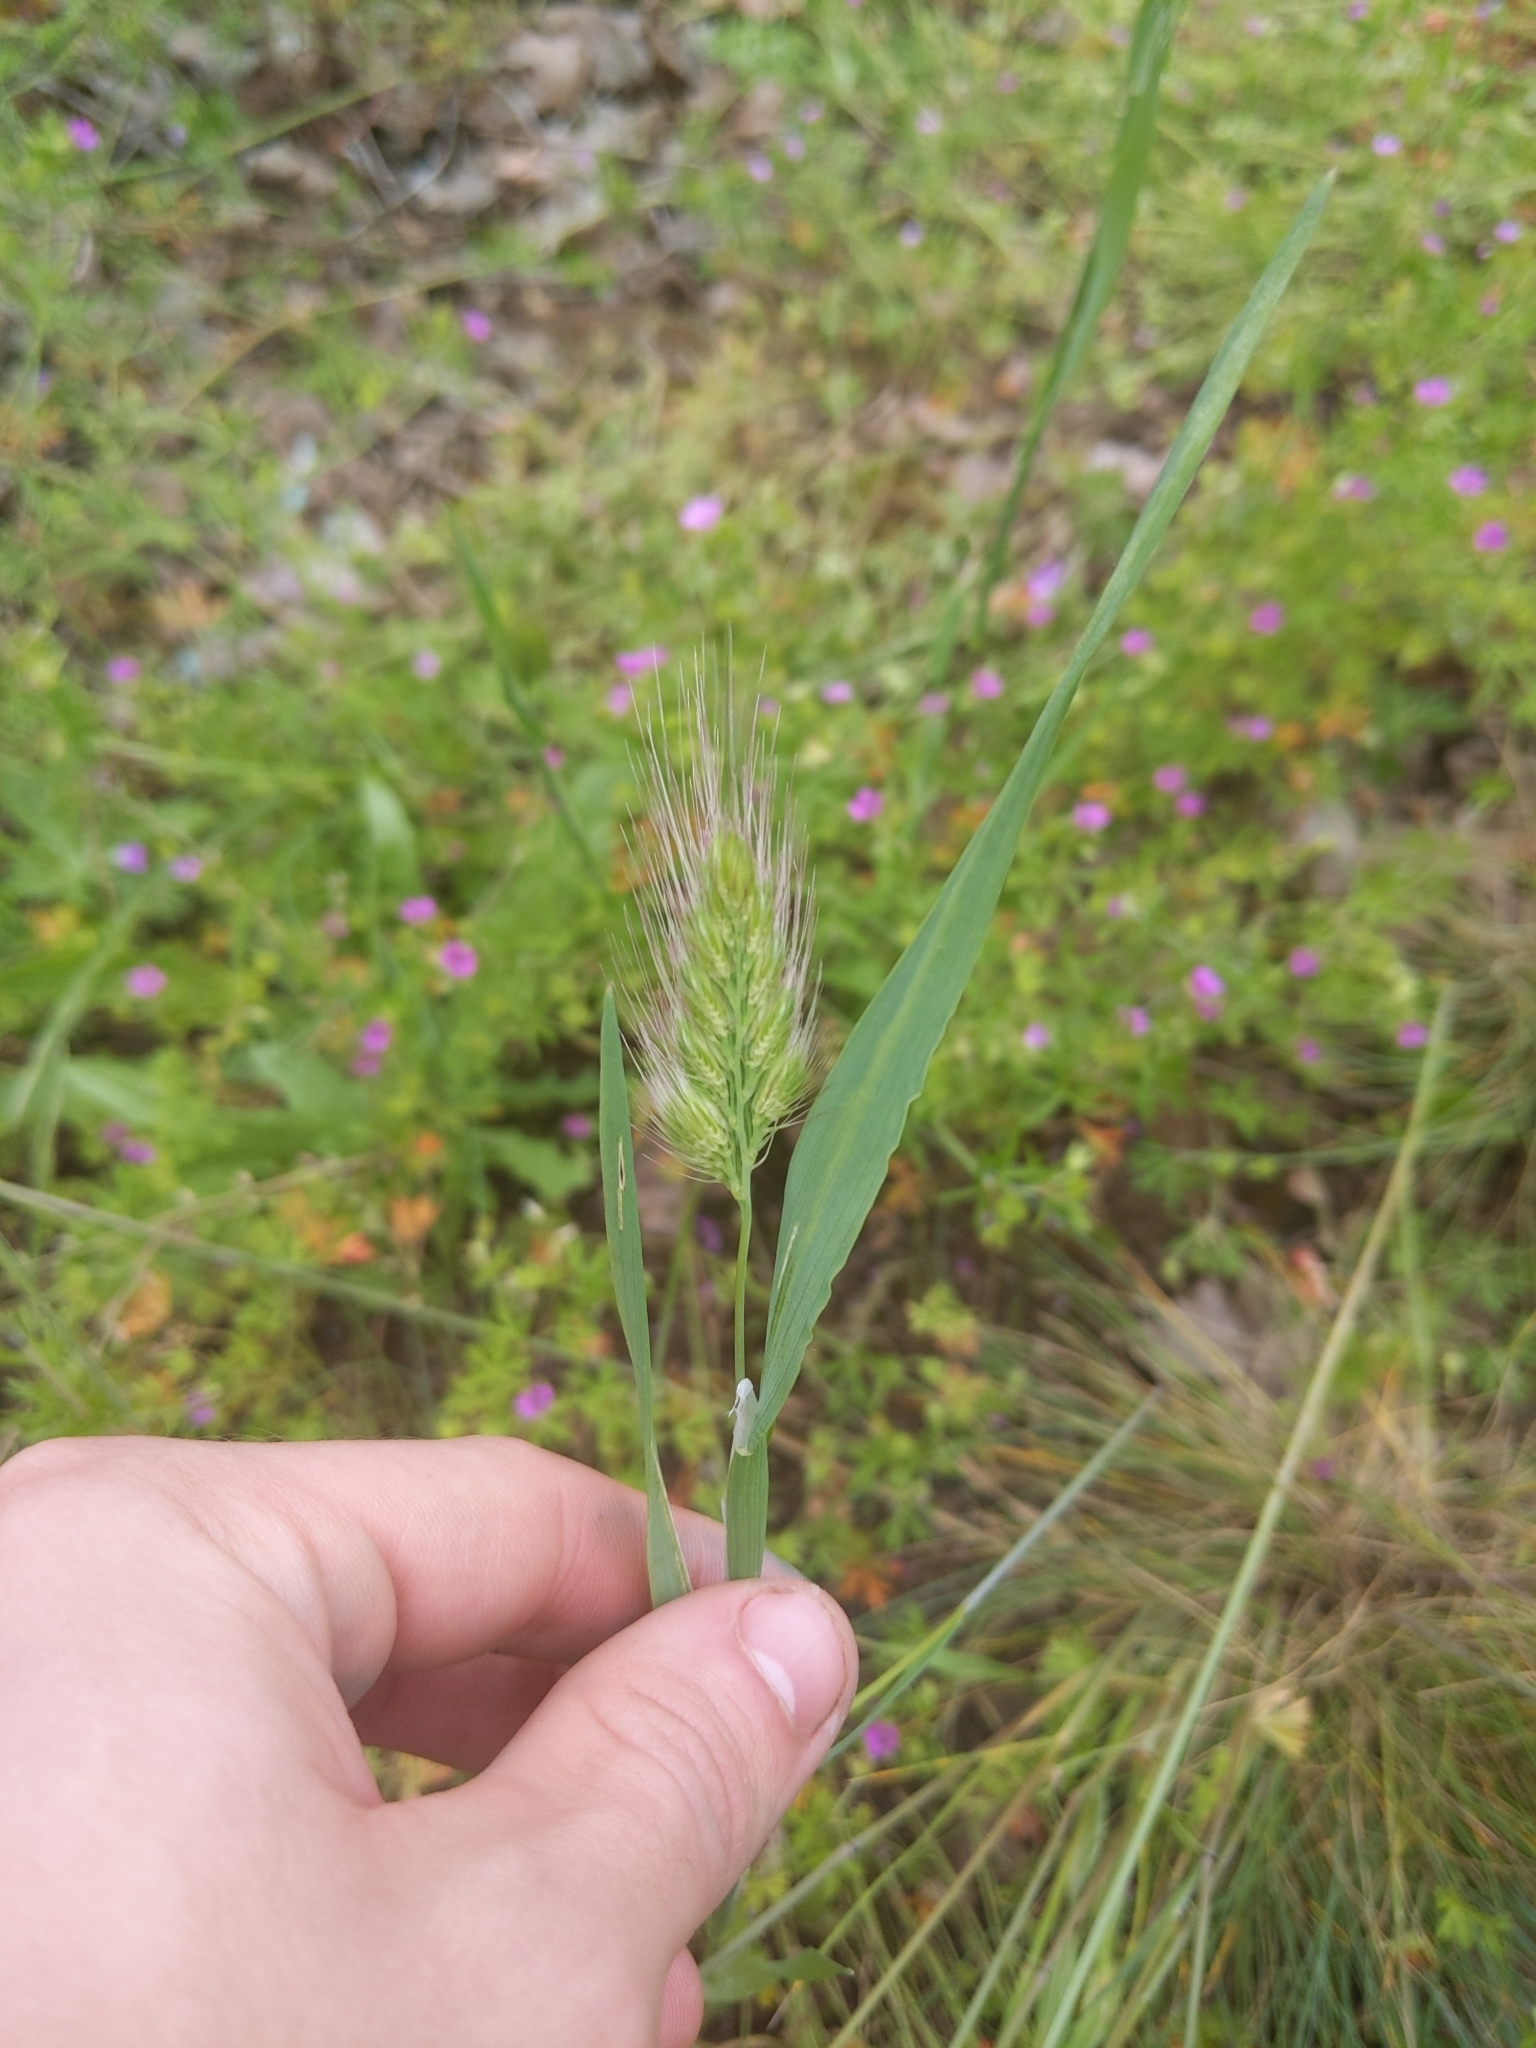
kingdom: Plantae
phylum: Tracheophyta
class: Liliopsida
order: Poales
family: Poaceae
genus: Cynosurus
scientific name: Cynosurus echinatus
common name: Rough dog's-tail
